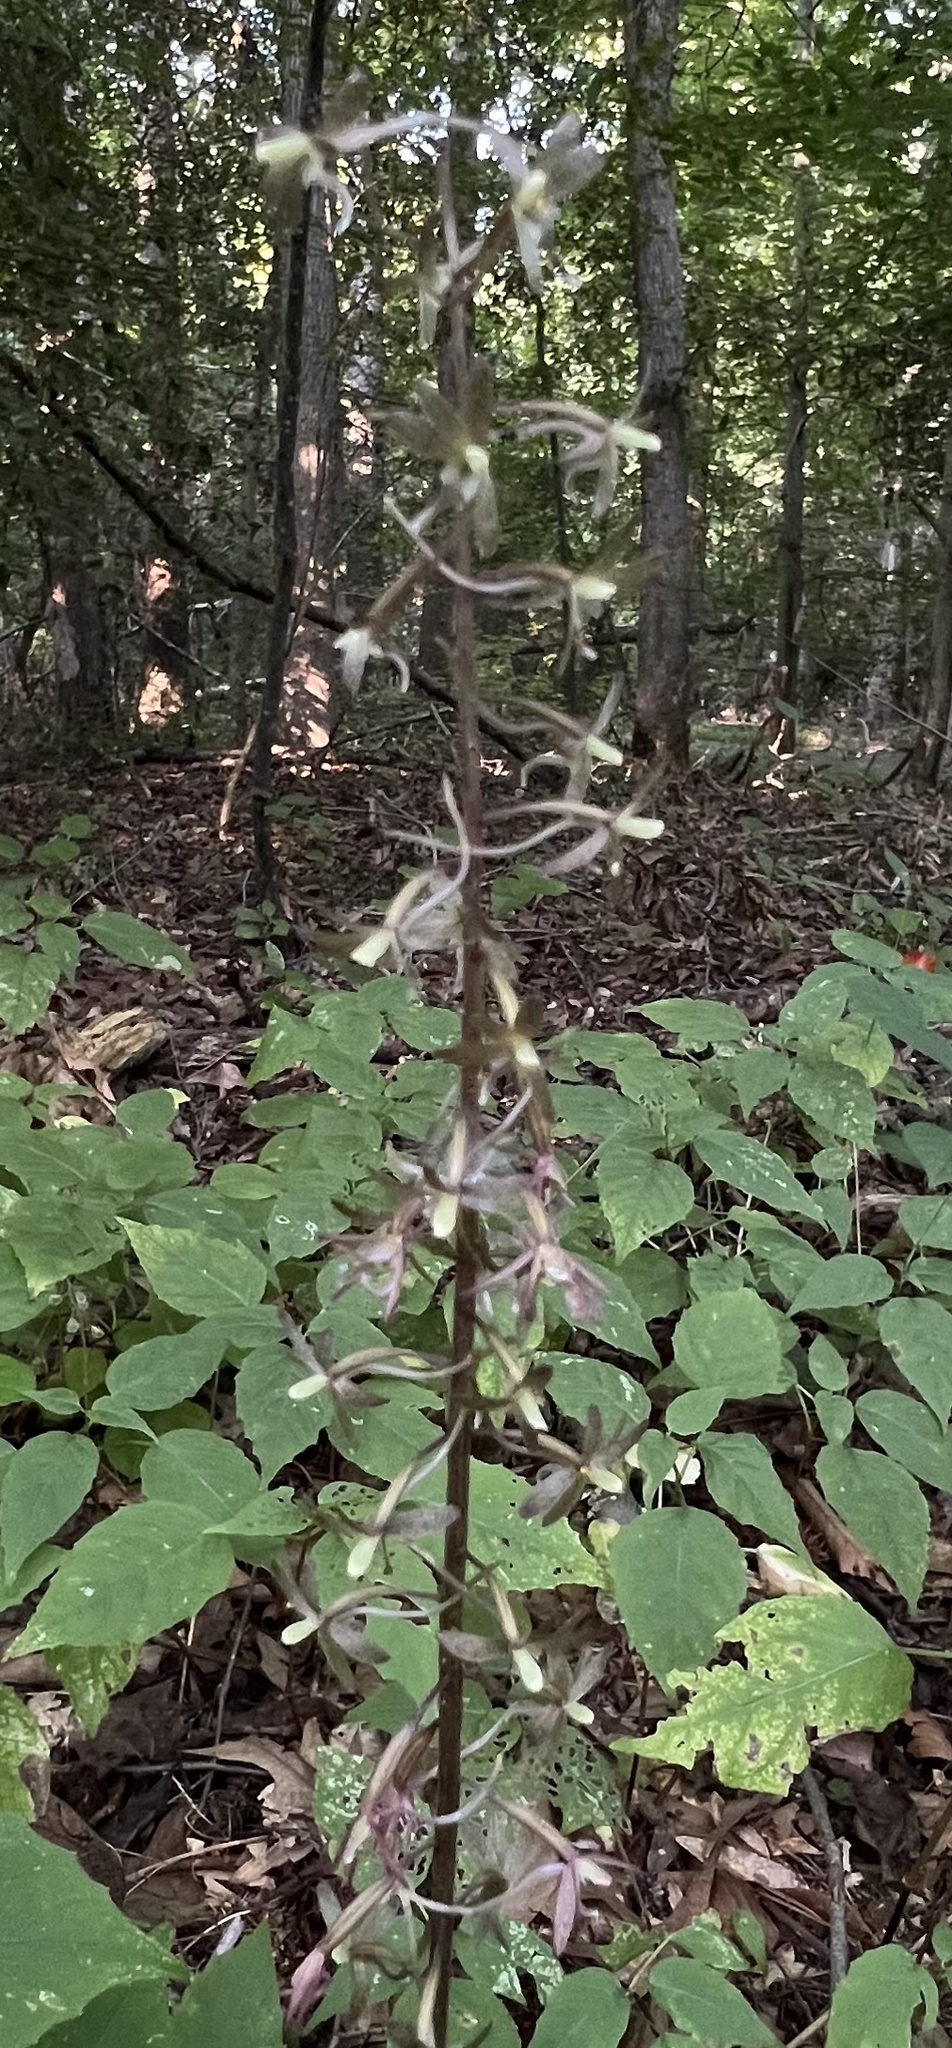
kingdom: Plantae
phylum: Tracheophyta
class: Liliopsida
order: Asparagales
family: Orchidaceae
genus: Tipularia
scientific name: Tipularia discolor
